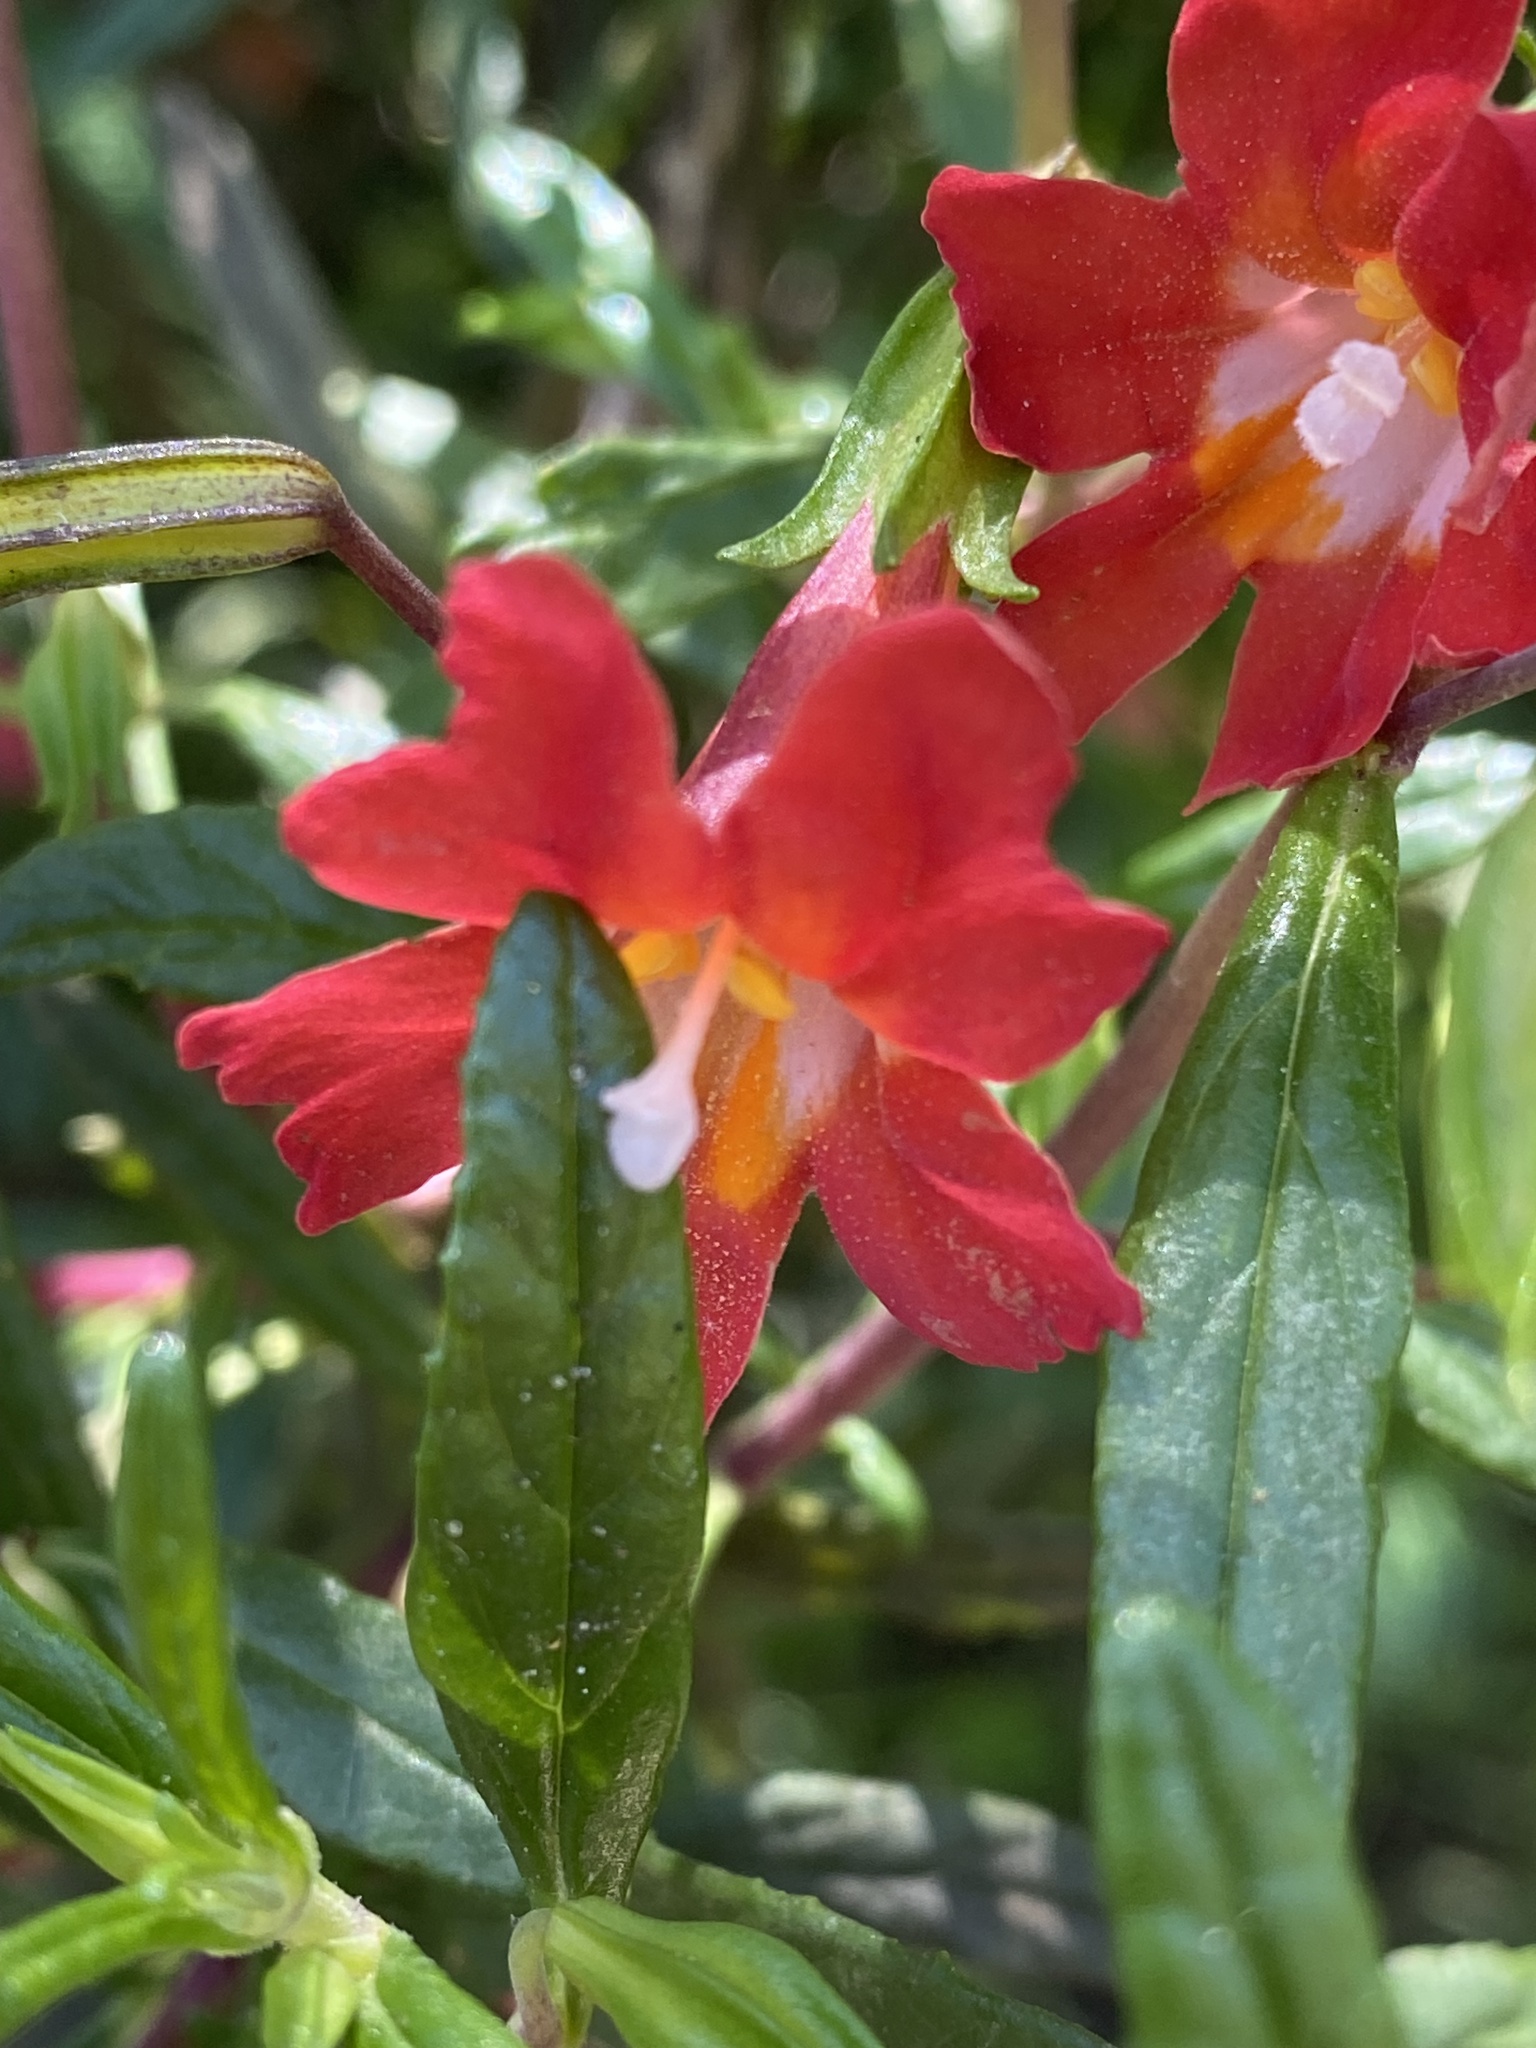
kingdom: Plantae
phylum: Tracheophyta
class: Magnoliopsida
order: Lamiales
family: Phrymaceae
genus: Diplacus
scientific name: Diplacus puniceus
